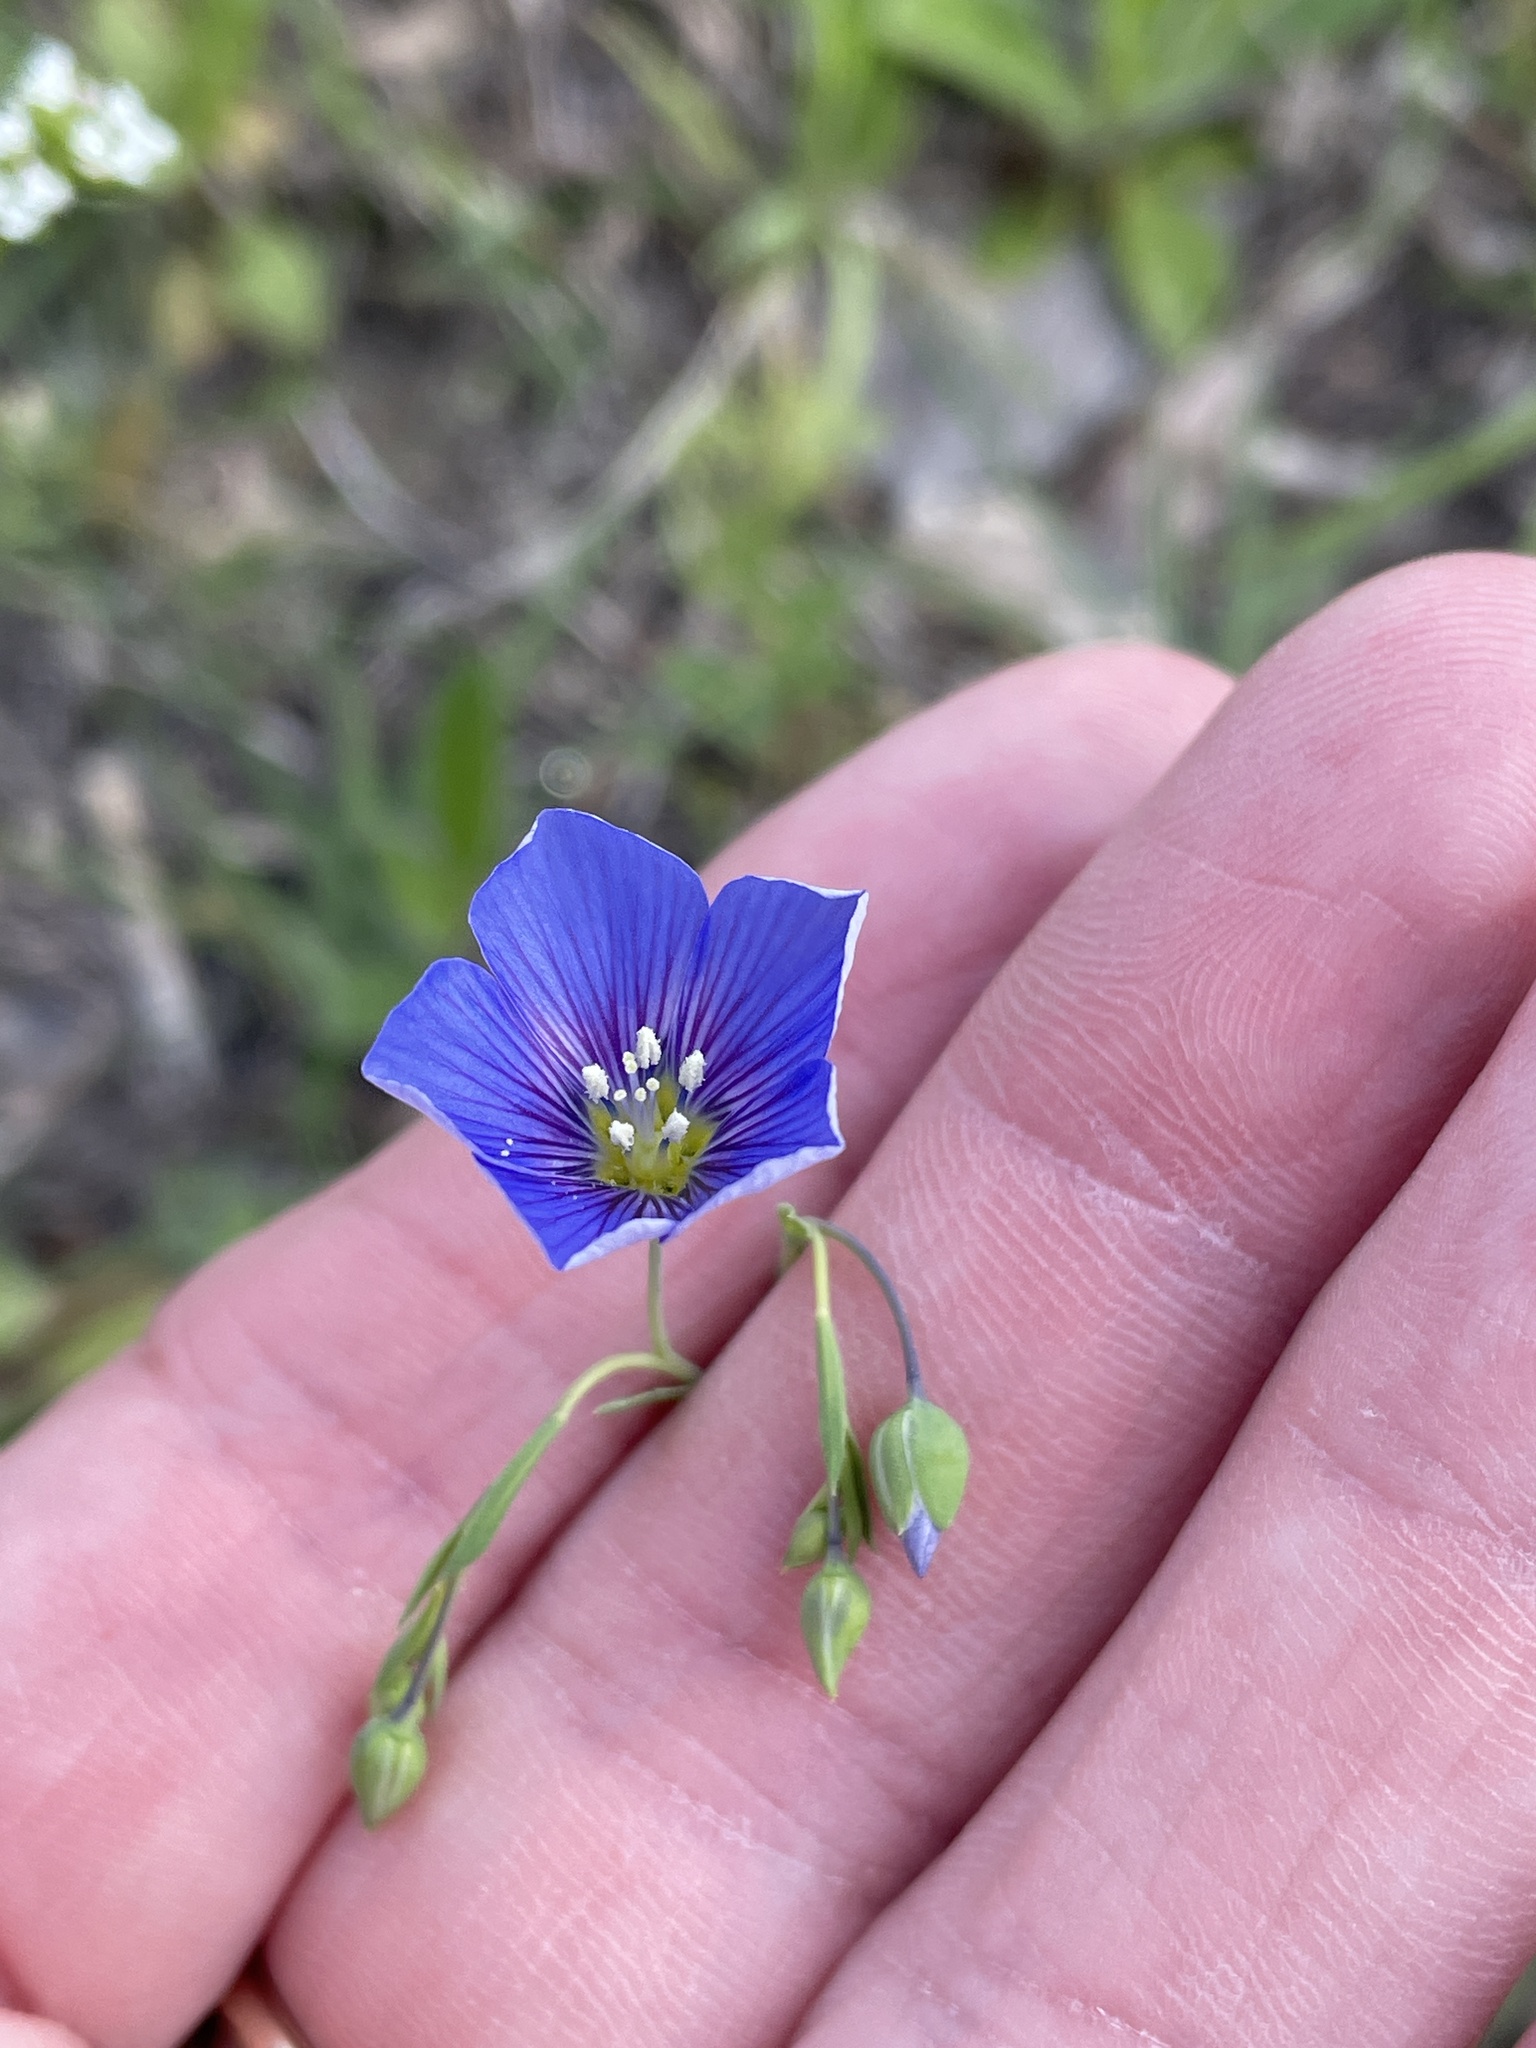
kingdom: Plantae
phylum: Tracheophyta
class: Magnoliopsida
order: Malpighiales
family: Linaceae
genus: Linum
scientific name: Linum pratense
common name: Norton's flax
